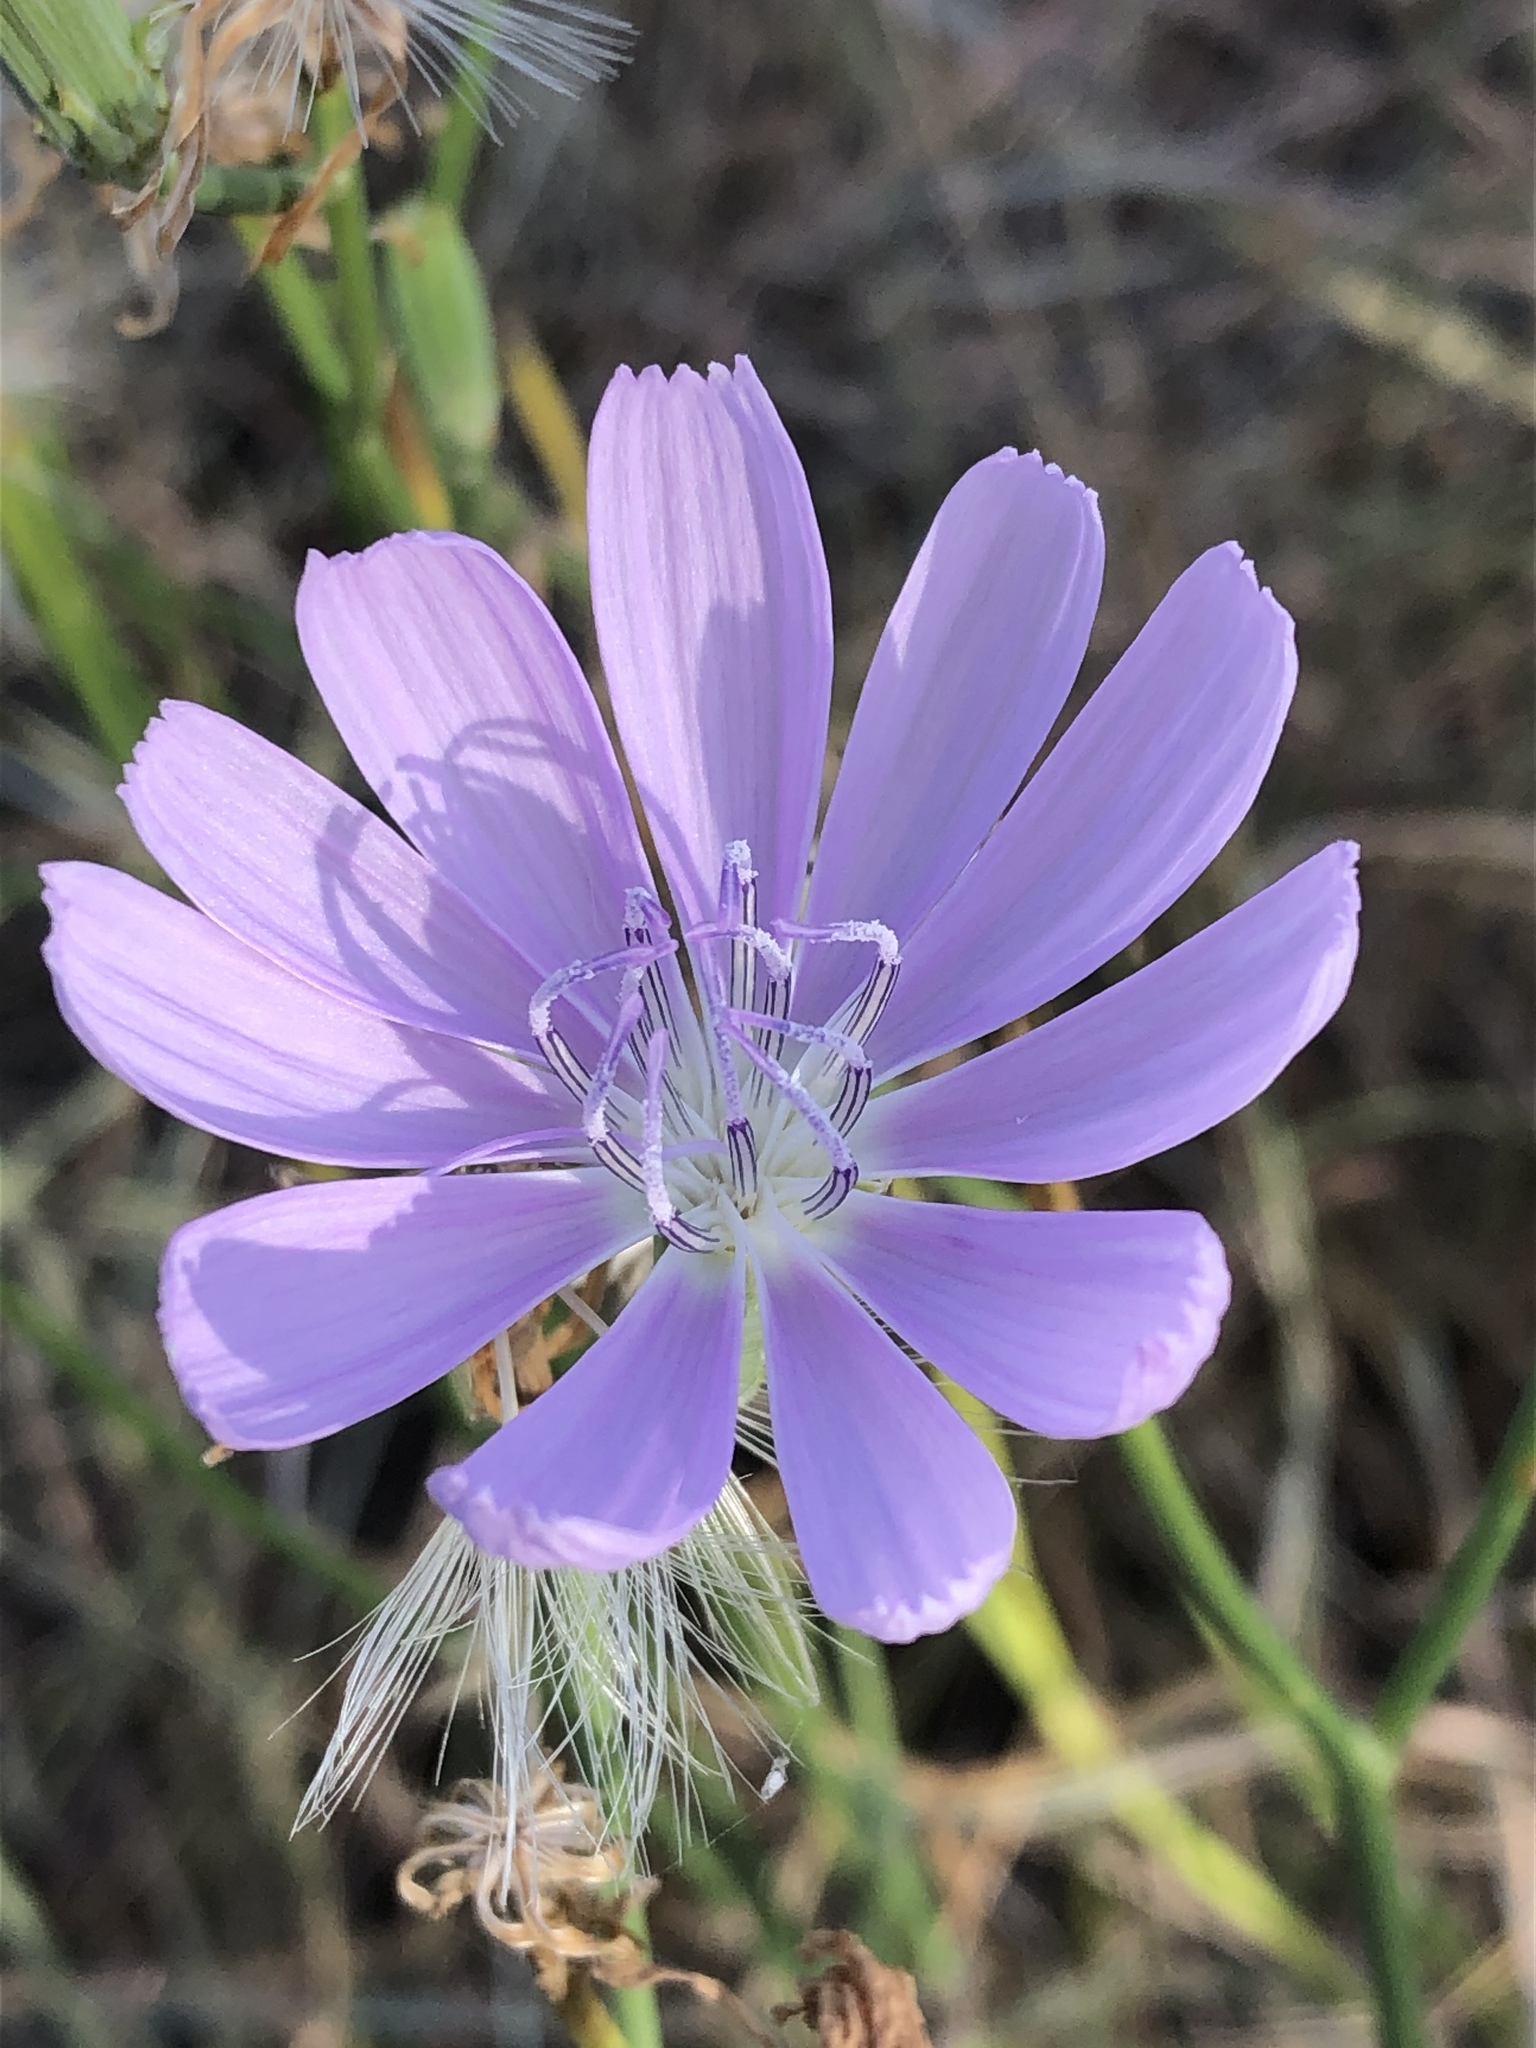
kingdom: Plantae
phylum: Tracheophyta
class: Magnoliopsida
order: Asterales
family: Asteraceae
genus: Lygodesmia
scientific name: Lygodesmia texana
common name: Texas skeleton-plant
